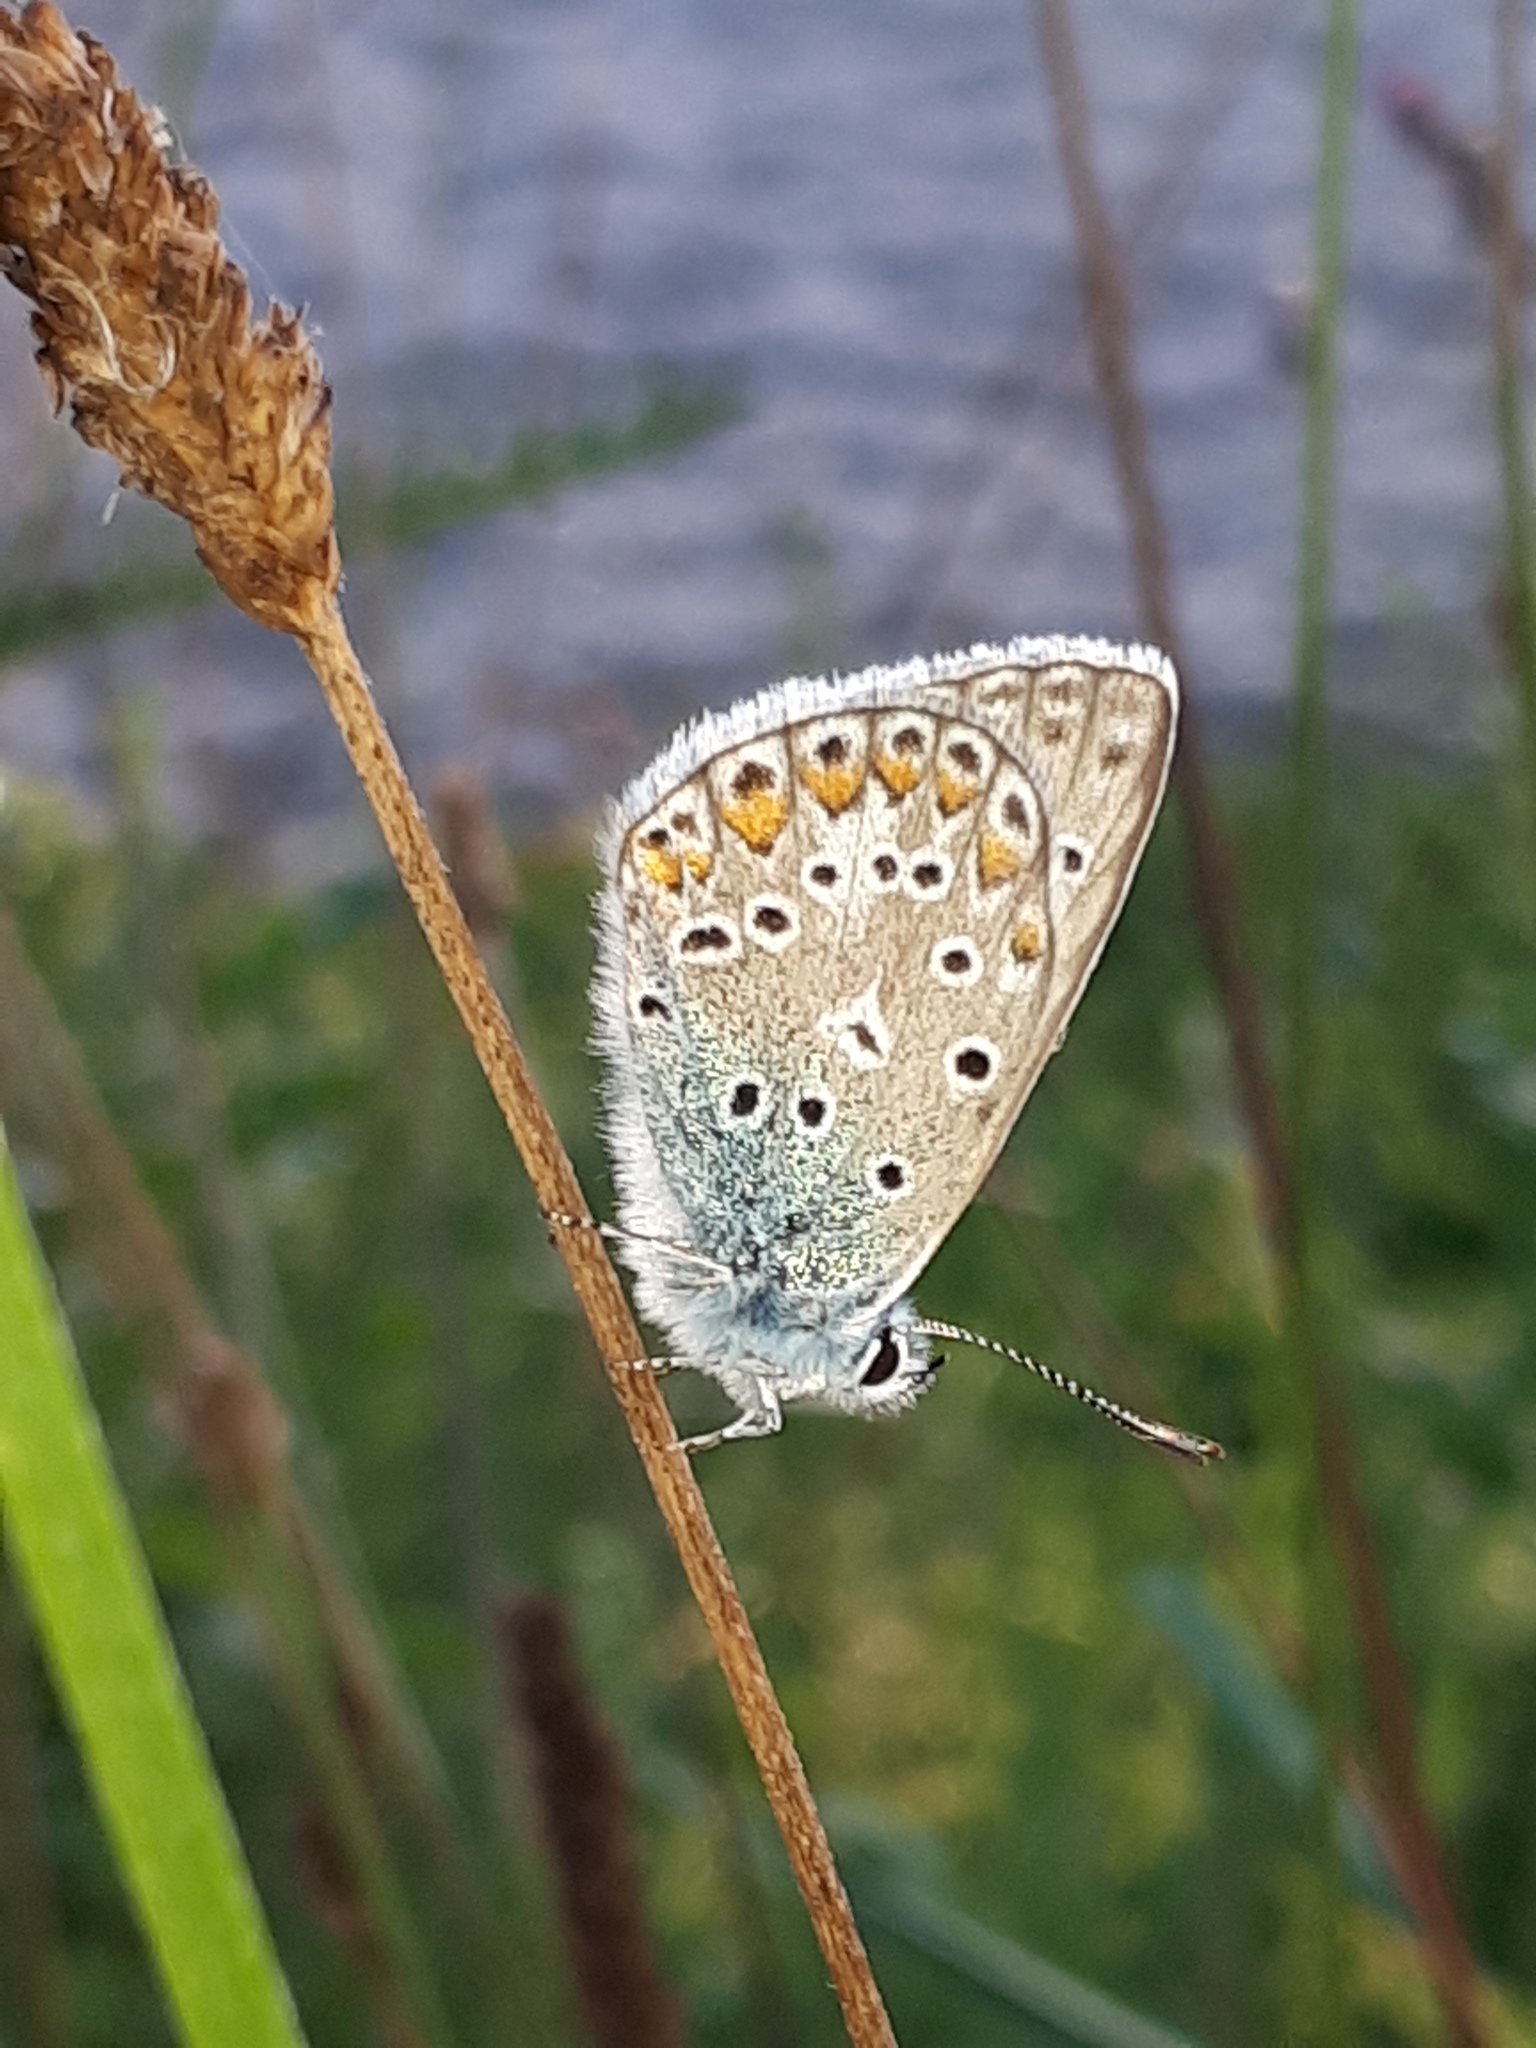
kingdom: Animalia
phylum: Arthropoda
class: Insecta
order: Lepidoptera
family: Lycaenidae
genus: Polyommatus
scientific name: Polyommatus icarus
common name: Common blue
